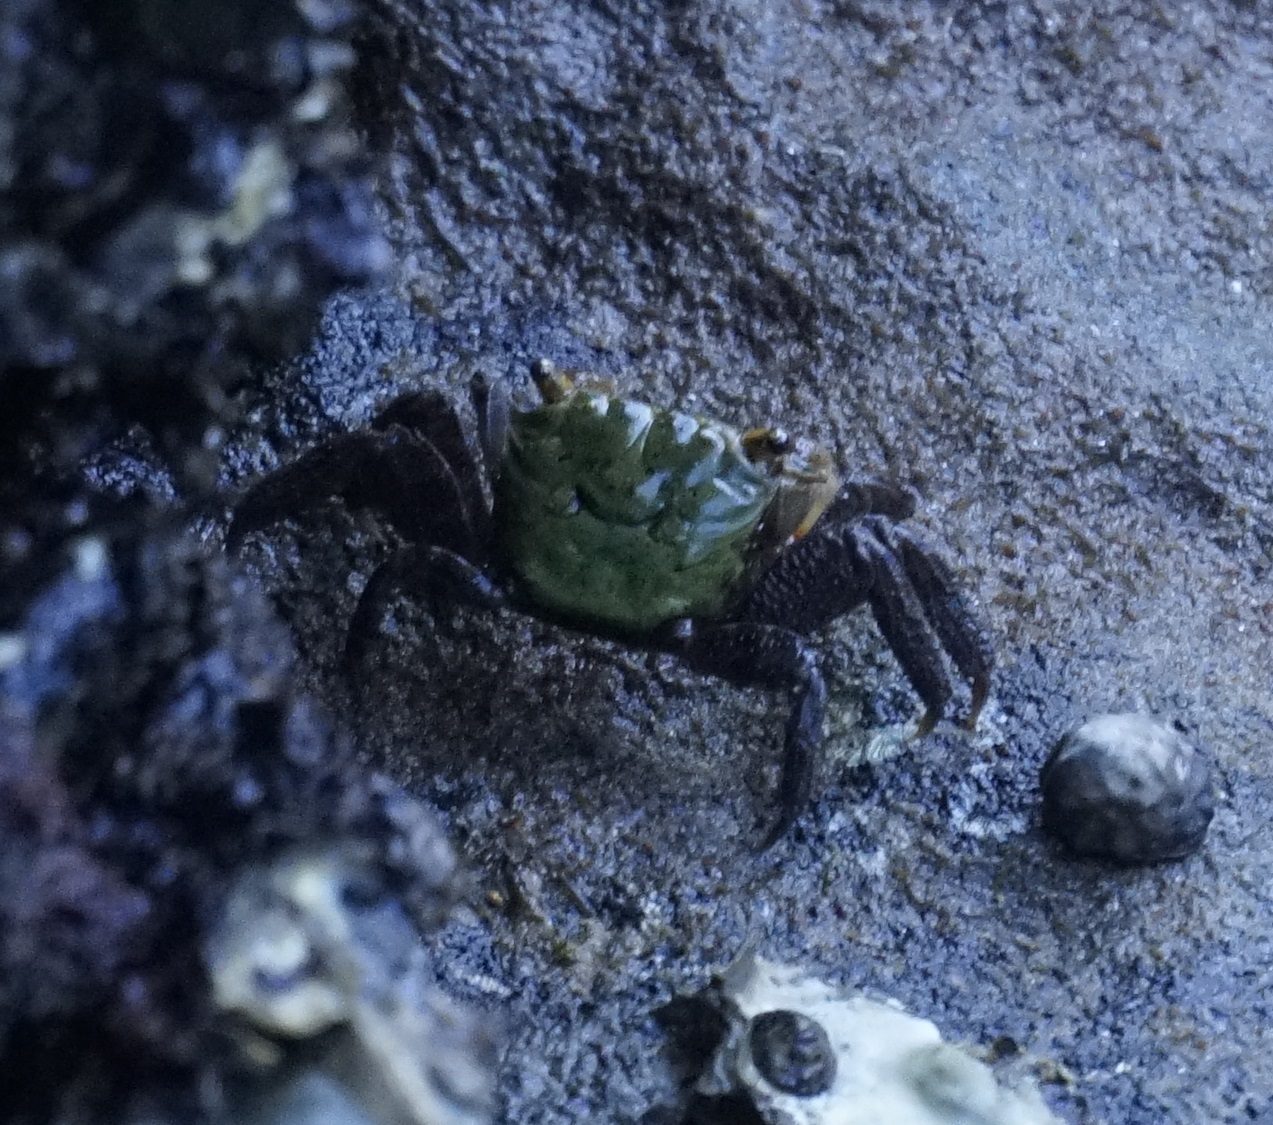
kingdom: Animalia
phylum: Arthropoda
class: Malacostraca
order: Decapoda
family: Sesarmidae
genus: Parasesarma
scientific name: Parasesarma erythodactylum
